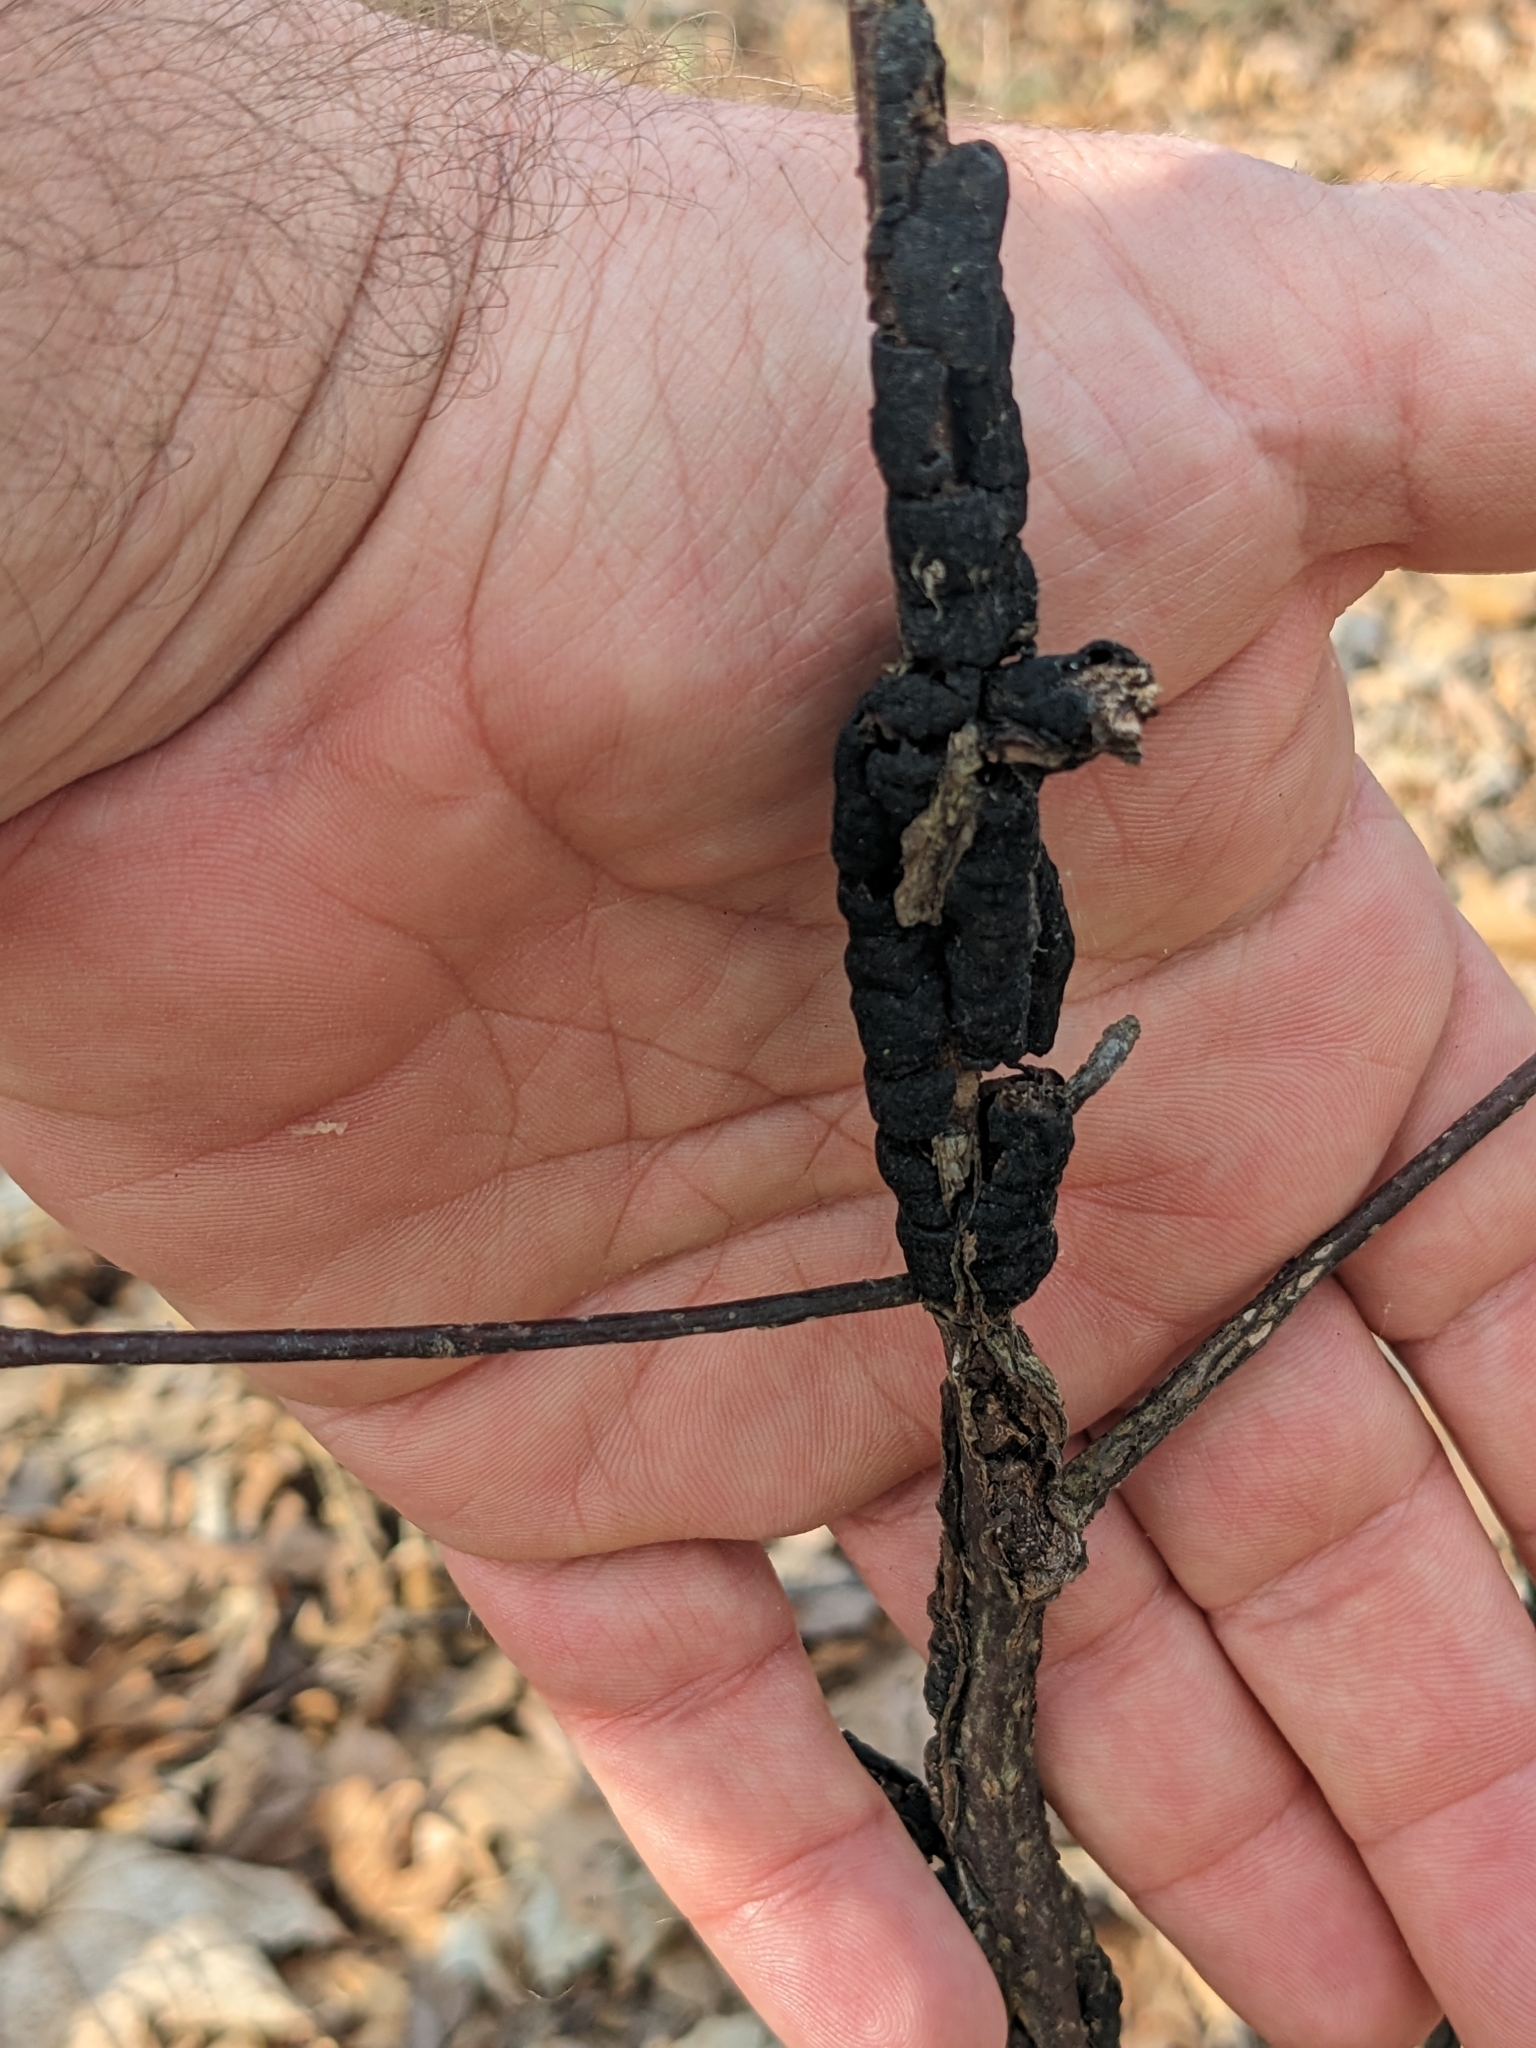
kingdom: Fungi
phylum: Ascomycota
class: Dothideomycetes
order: Venturiales
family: Venturiaceae
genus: Apiosporina
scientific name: Apiosporina morbosa
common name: Black knot
